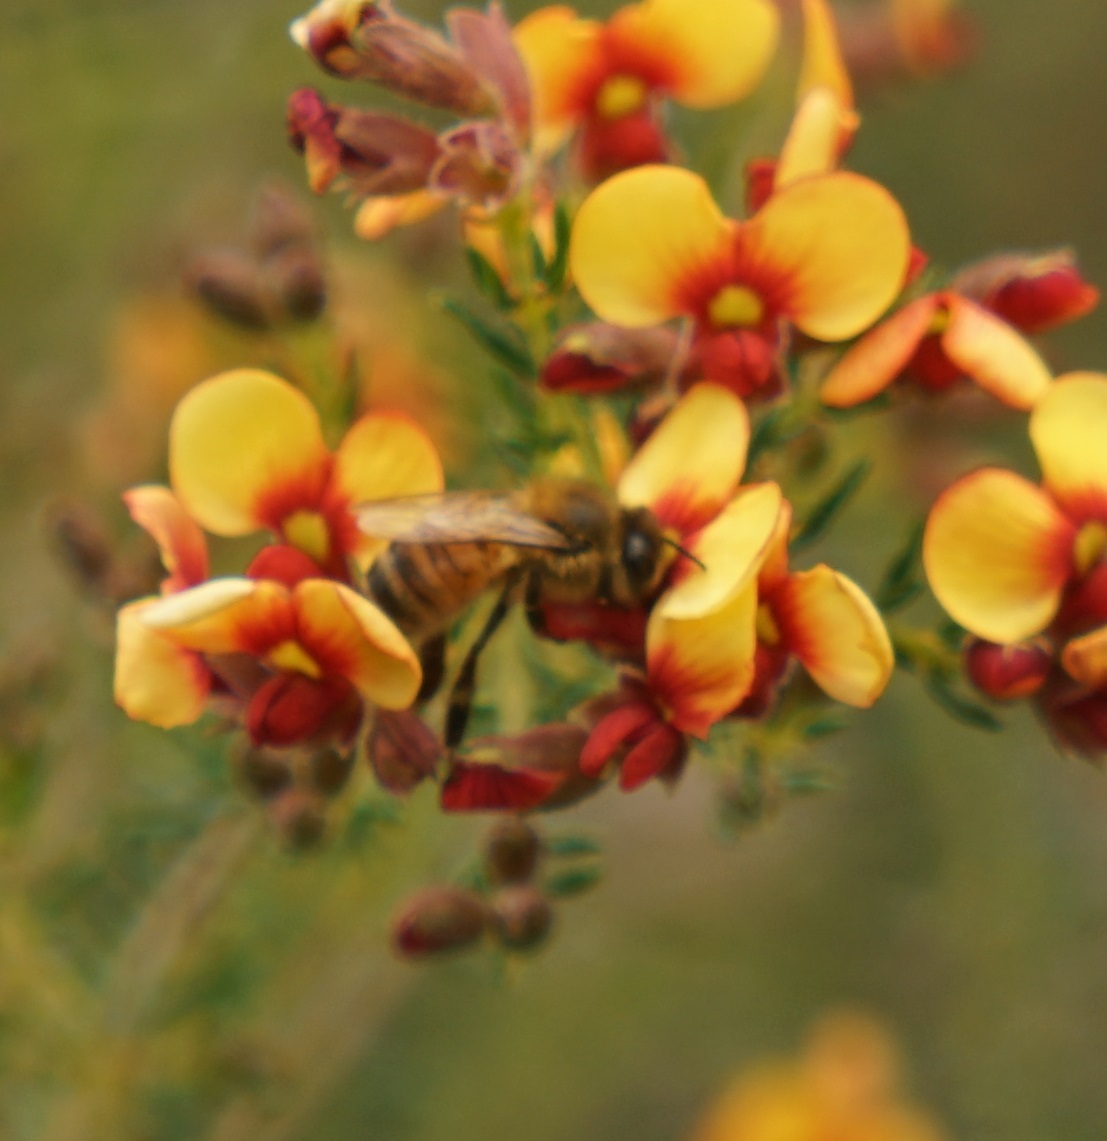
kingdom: Animalia
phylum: Arthropoda
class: Insecta
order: Hymenoptera
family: Apidae
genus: Apis
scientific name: Apis mellifera
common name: Honey bee
